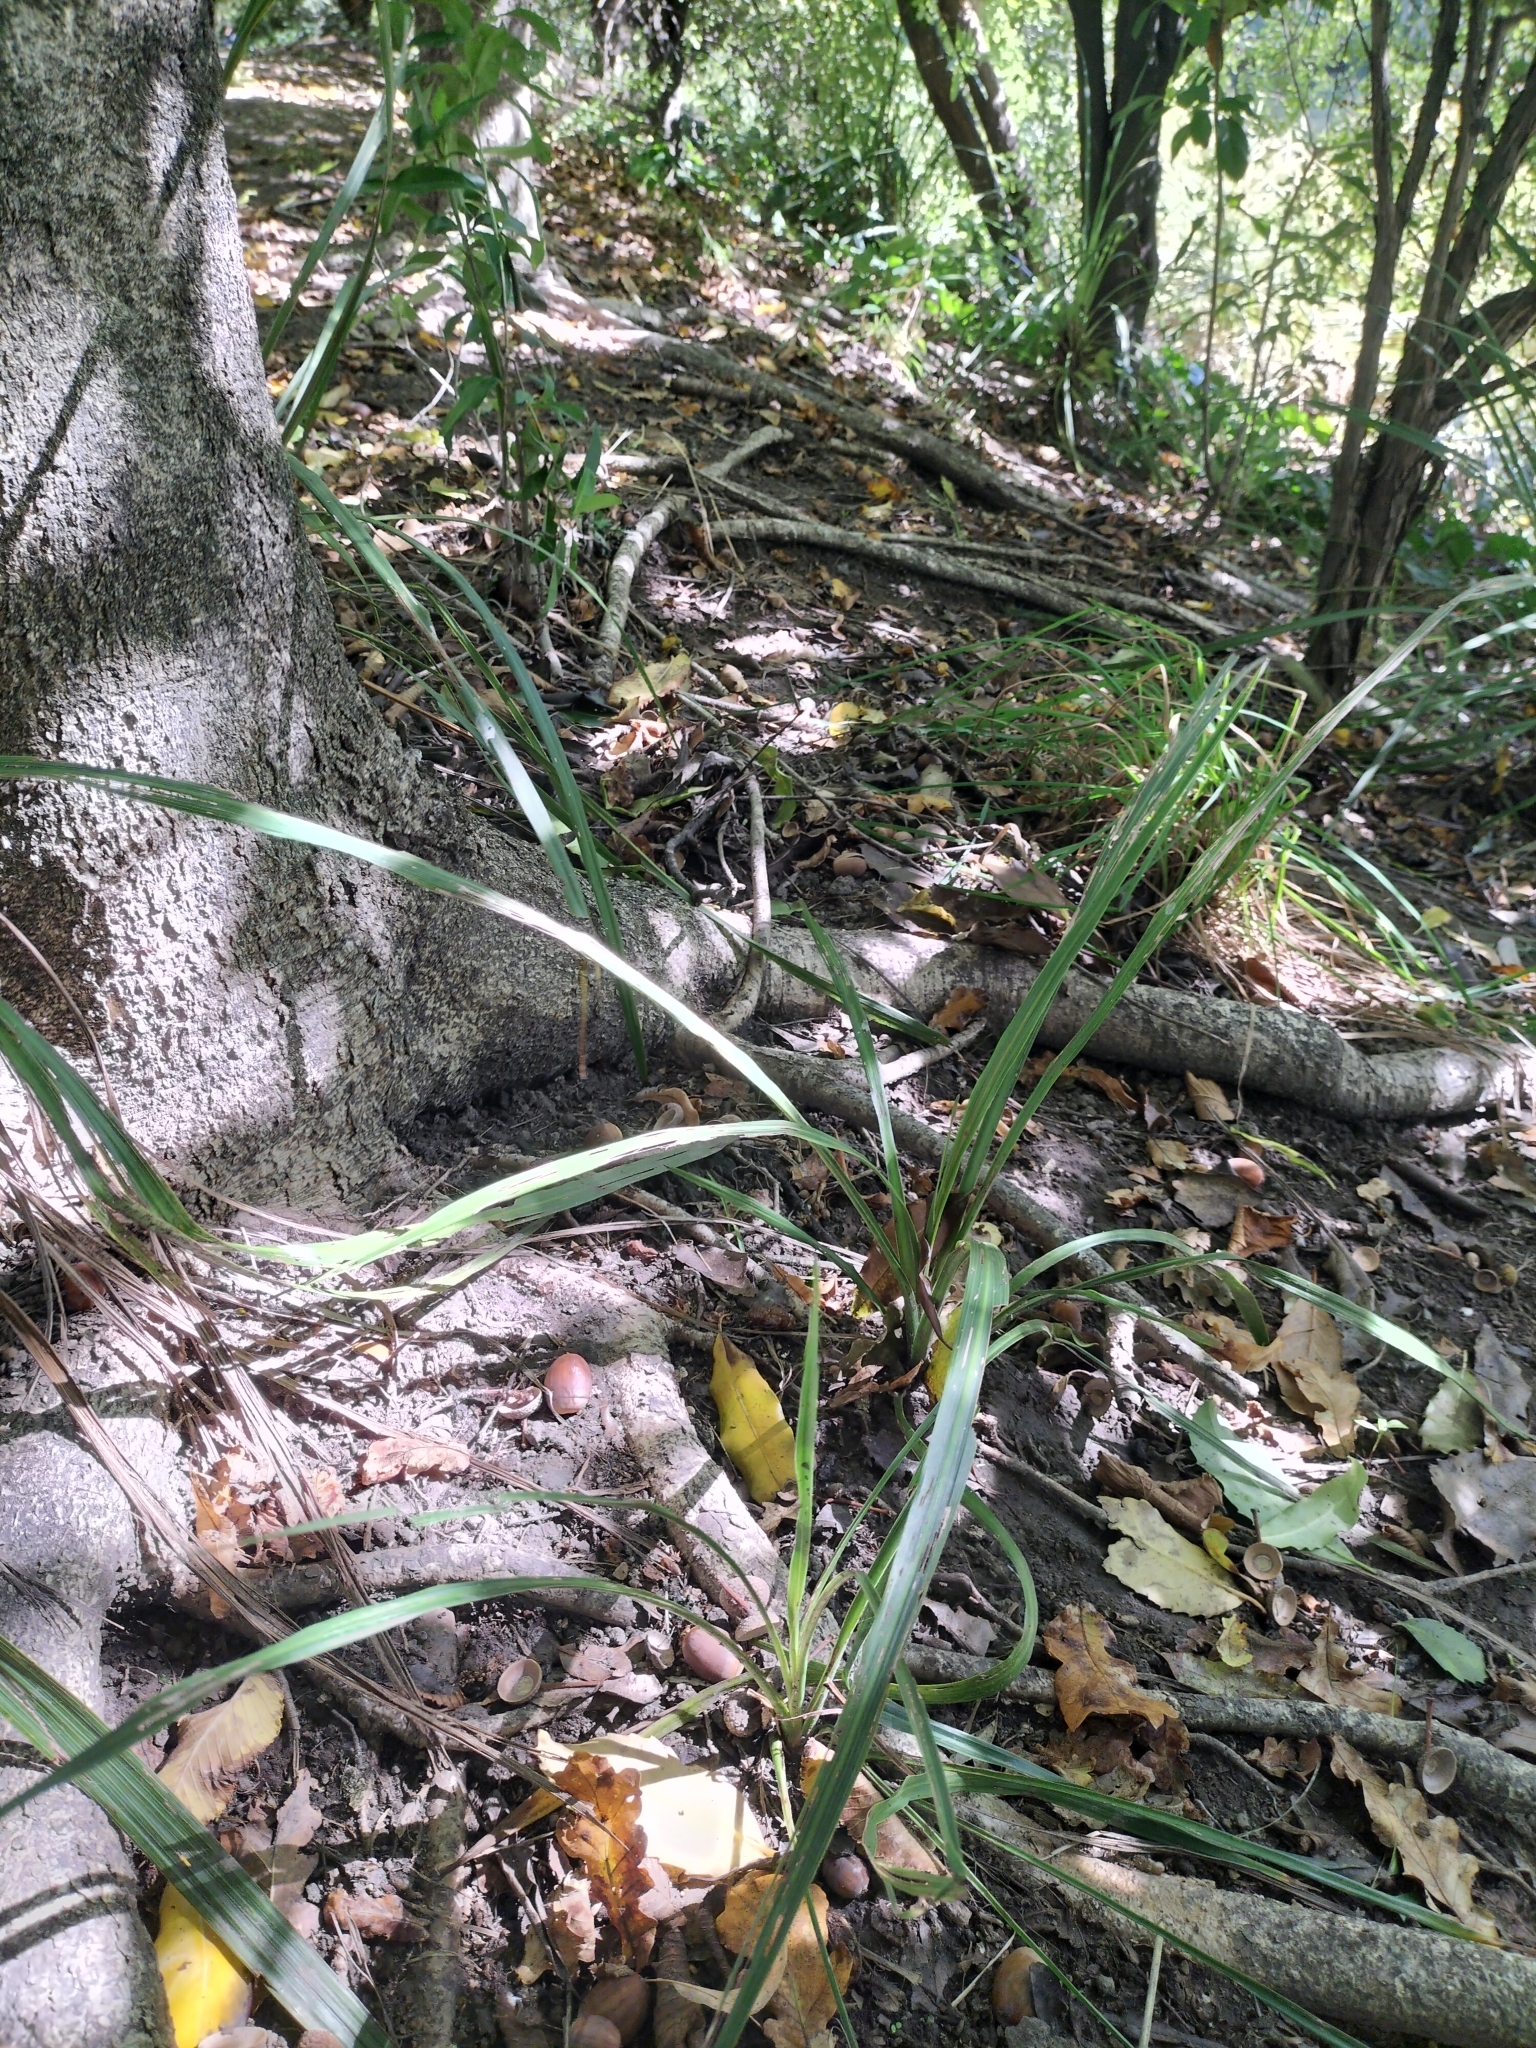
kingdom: Plantae
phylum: Tracheophyta
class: Liliopsida
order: Asparagales
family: Asparagaceae
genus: Cordyline
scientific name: Cordyline australis
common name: Cabbage-palm
